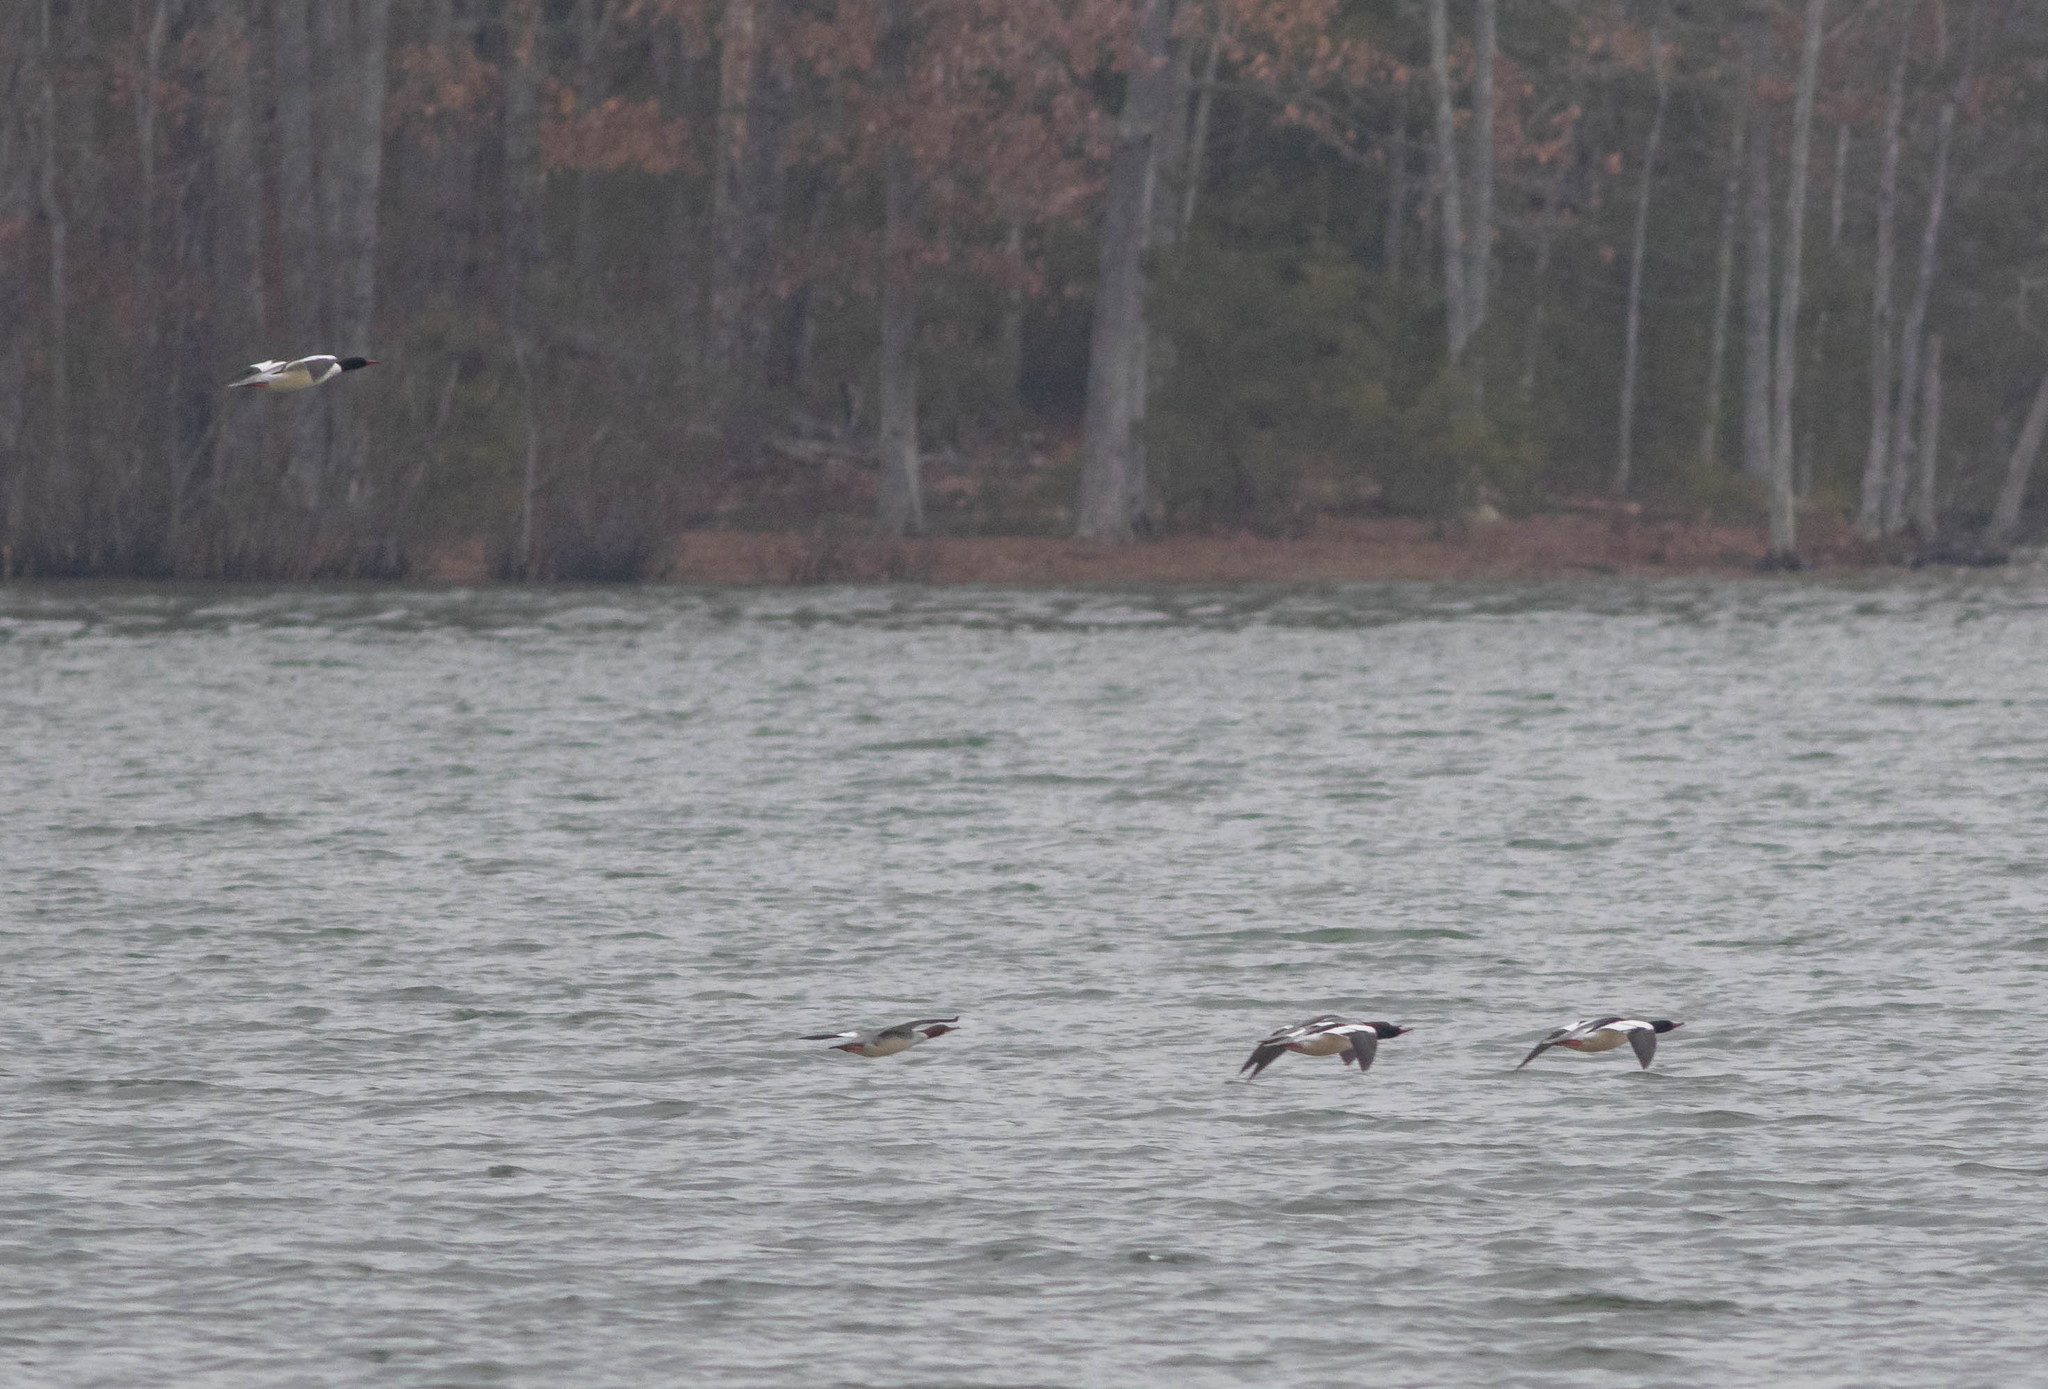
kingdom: Animalia
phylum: Chordata
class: Aves
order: Anseriformes
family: Anatidae
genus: Mergus
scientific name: Mergus merganser
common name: Common merganser
